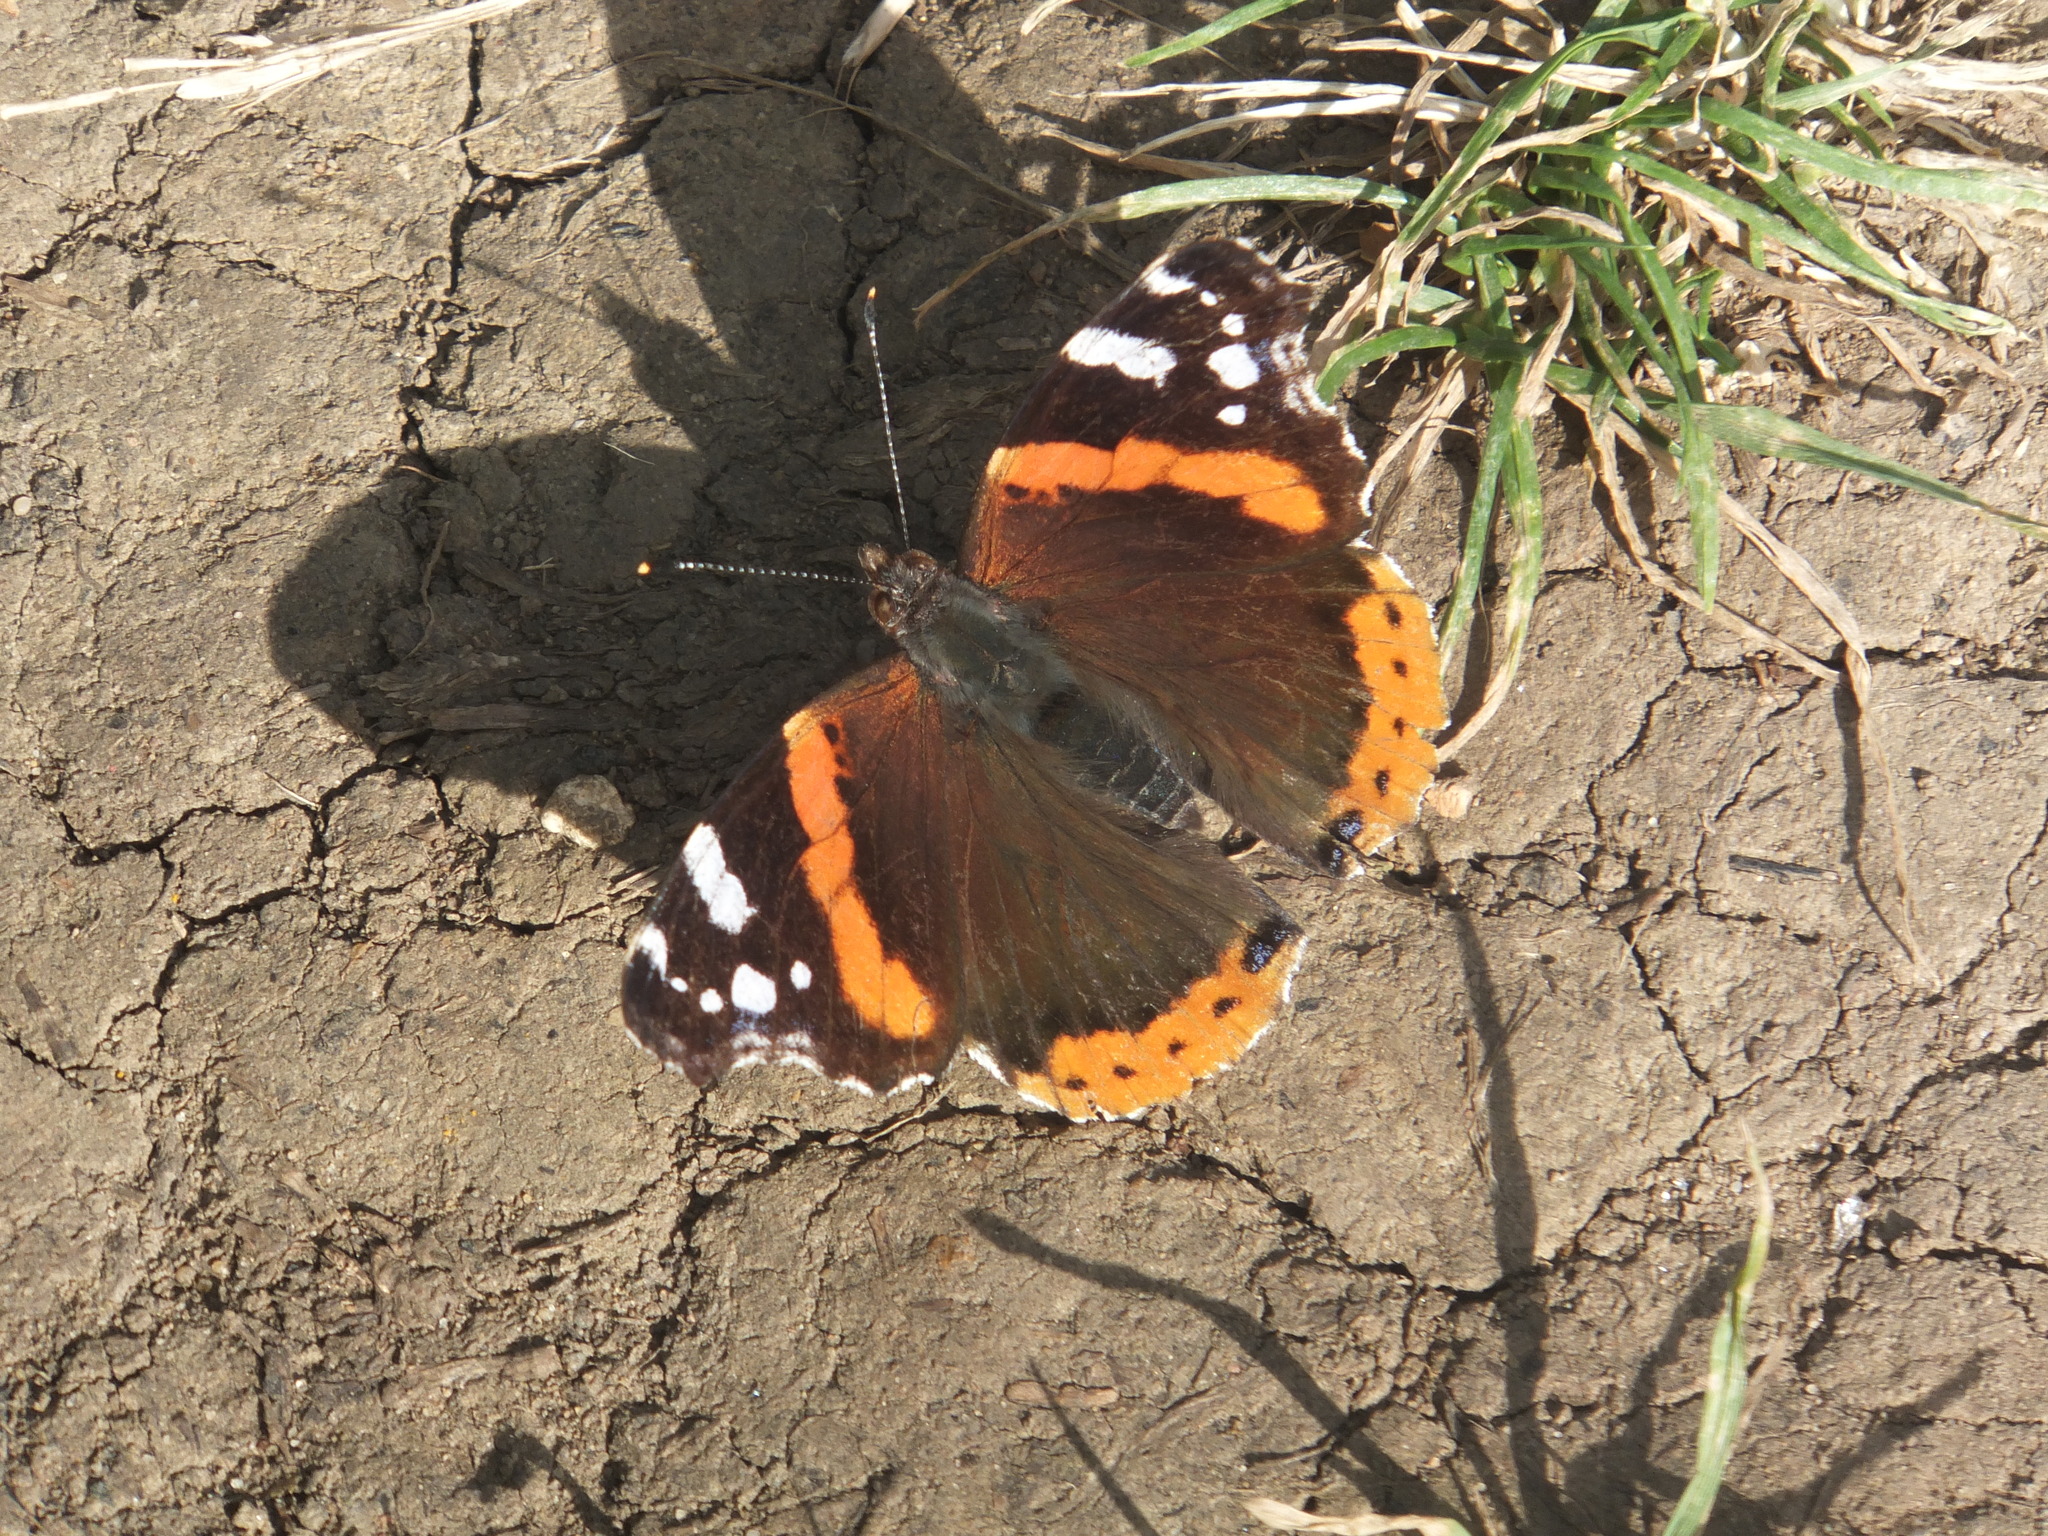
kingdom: Animalia
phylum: Arthropoda
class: Insecta
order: Lepidoptera
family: Nymphalidae
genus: Vanessa
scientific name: Vanessa atalanta
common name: Red admiral
